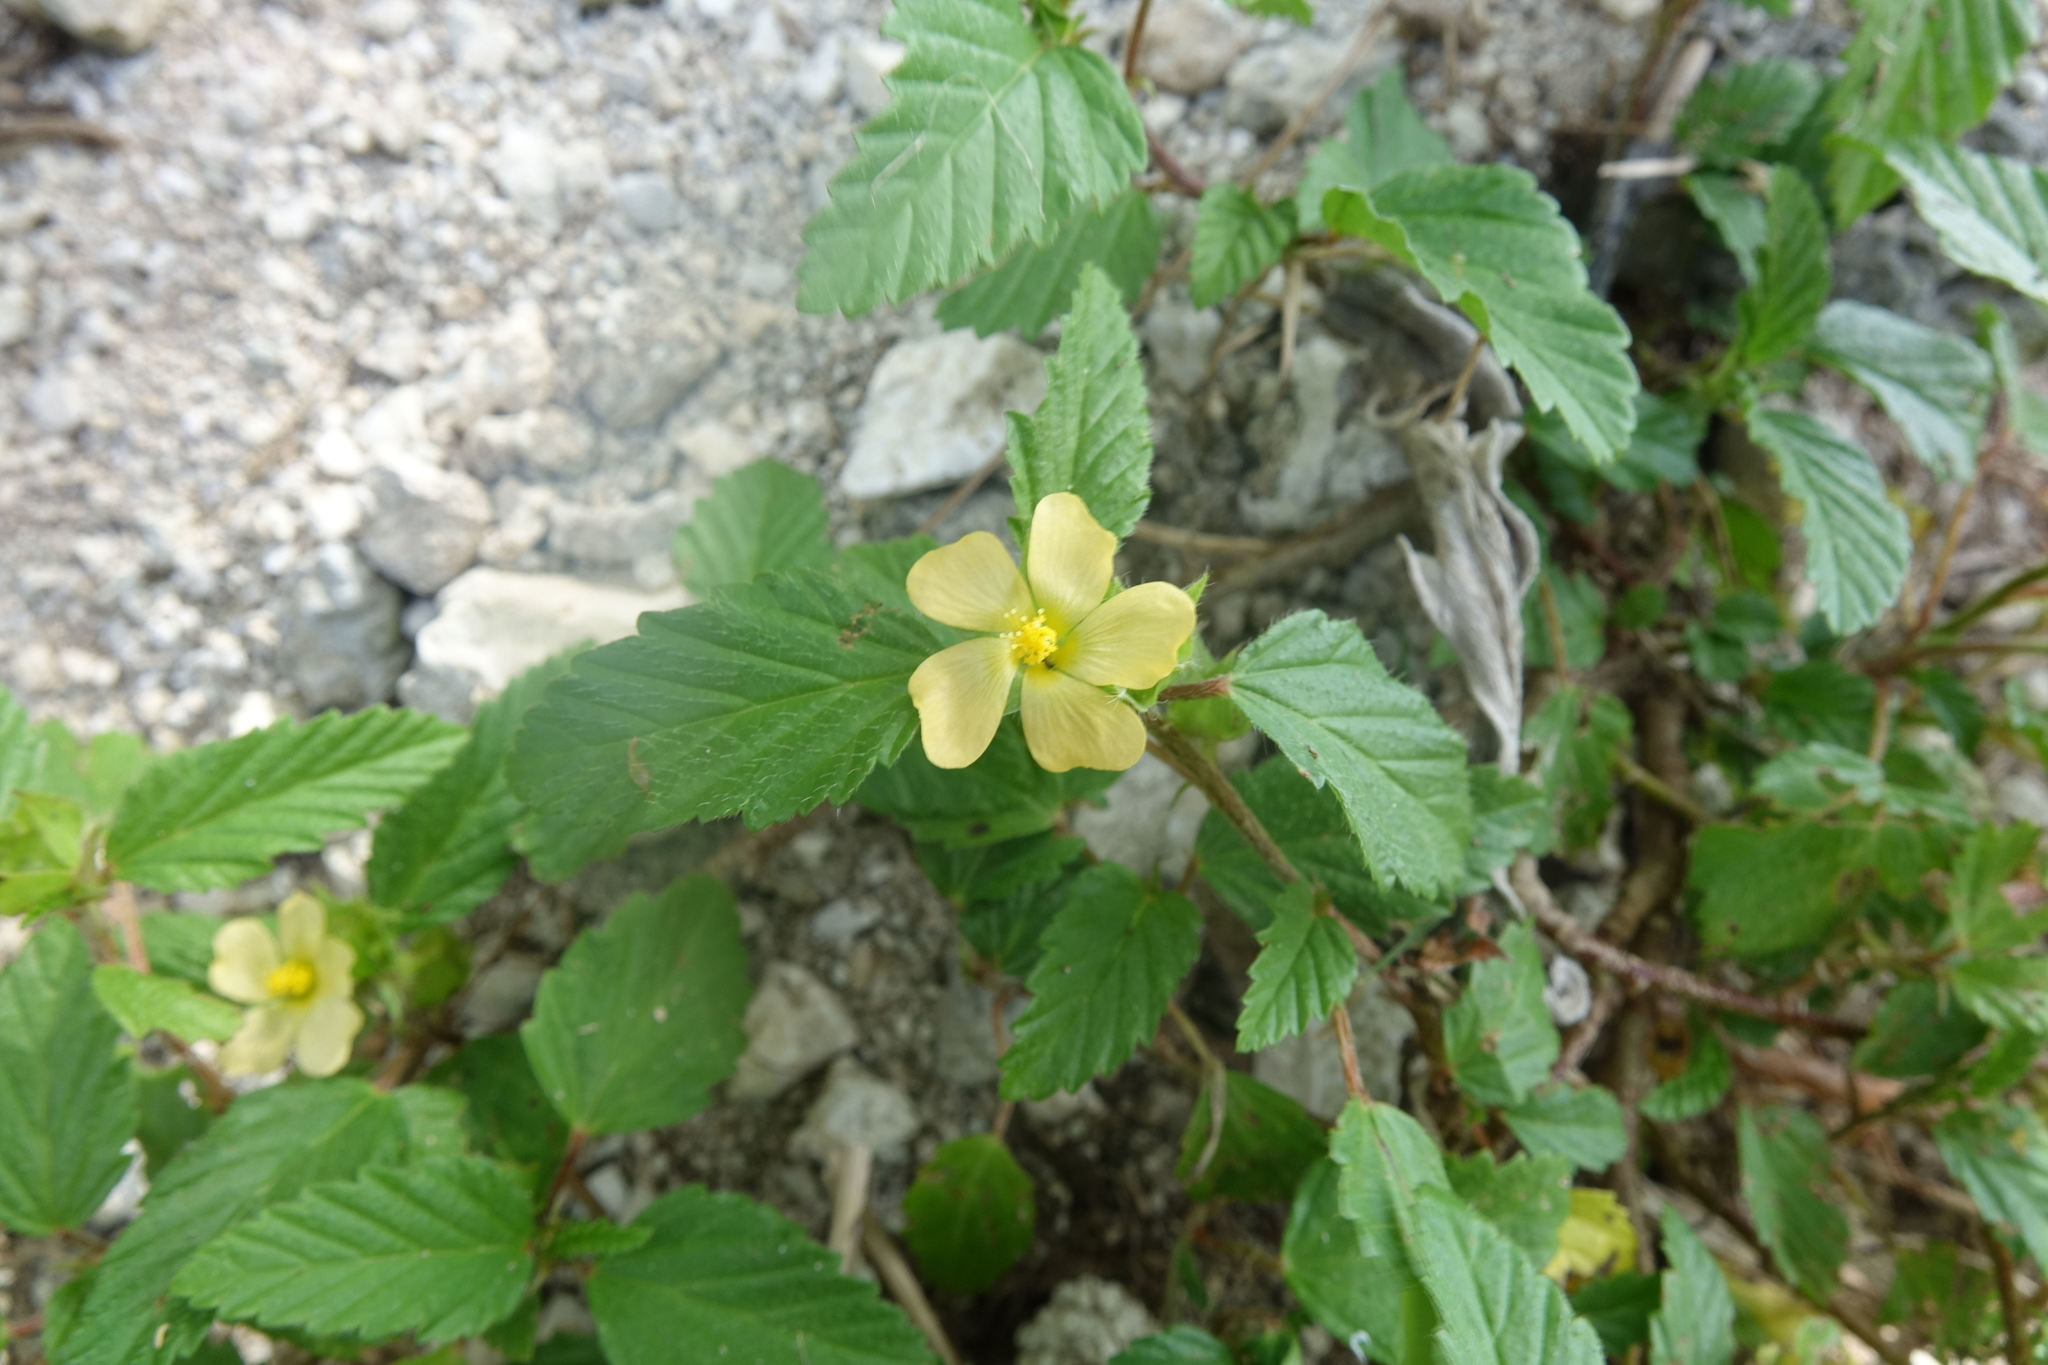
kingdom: Plantae
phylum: Tracheophyta
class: Magnoliopsida
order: Malvales
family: Malvaceae
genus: Sida
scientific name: Sida rhombifolia
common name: Queensland-hemp
